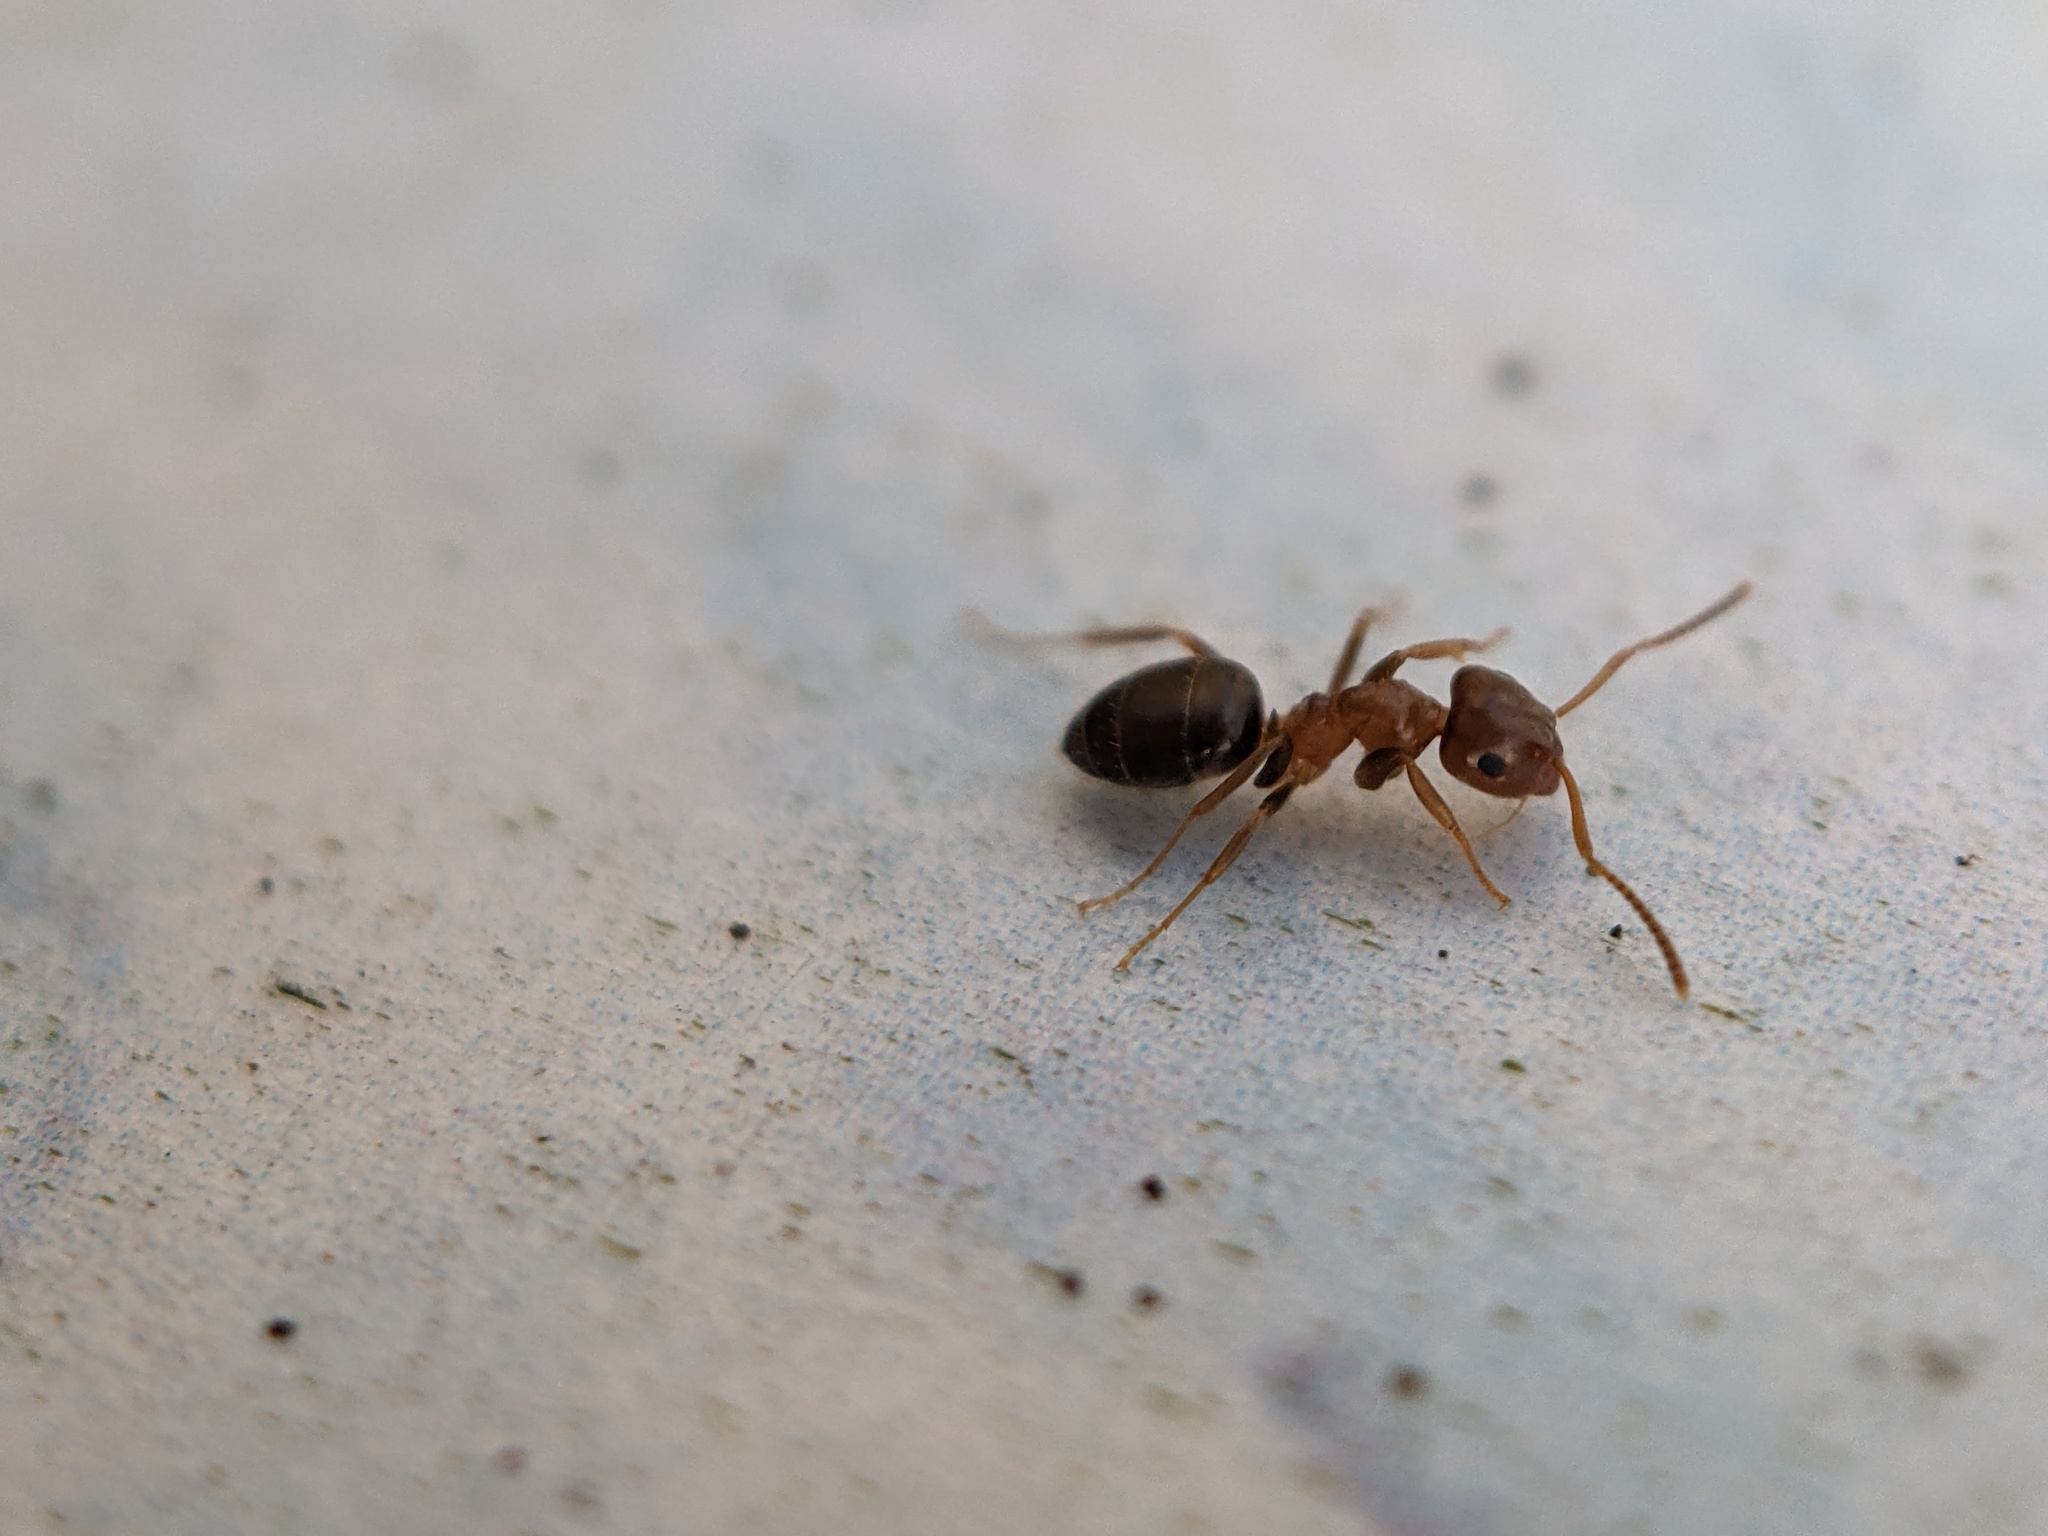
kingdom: Animalia
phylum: Arthropoda
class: Insecta
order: Hymenoptera
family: Formicidae
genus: Lasius
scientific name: Lasius brunneus
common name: Brown ant
